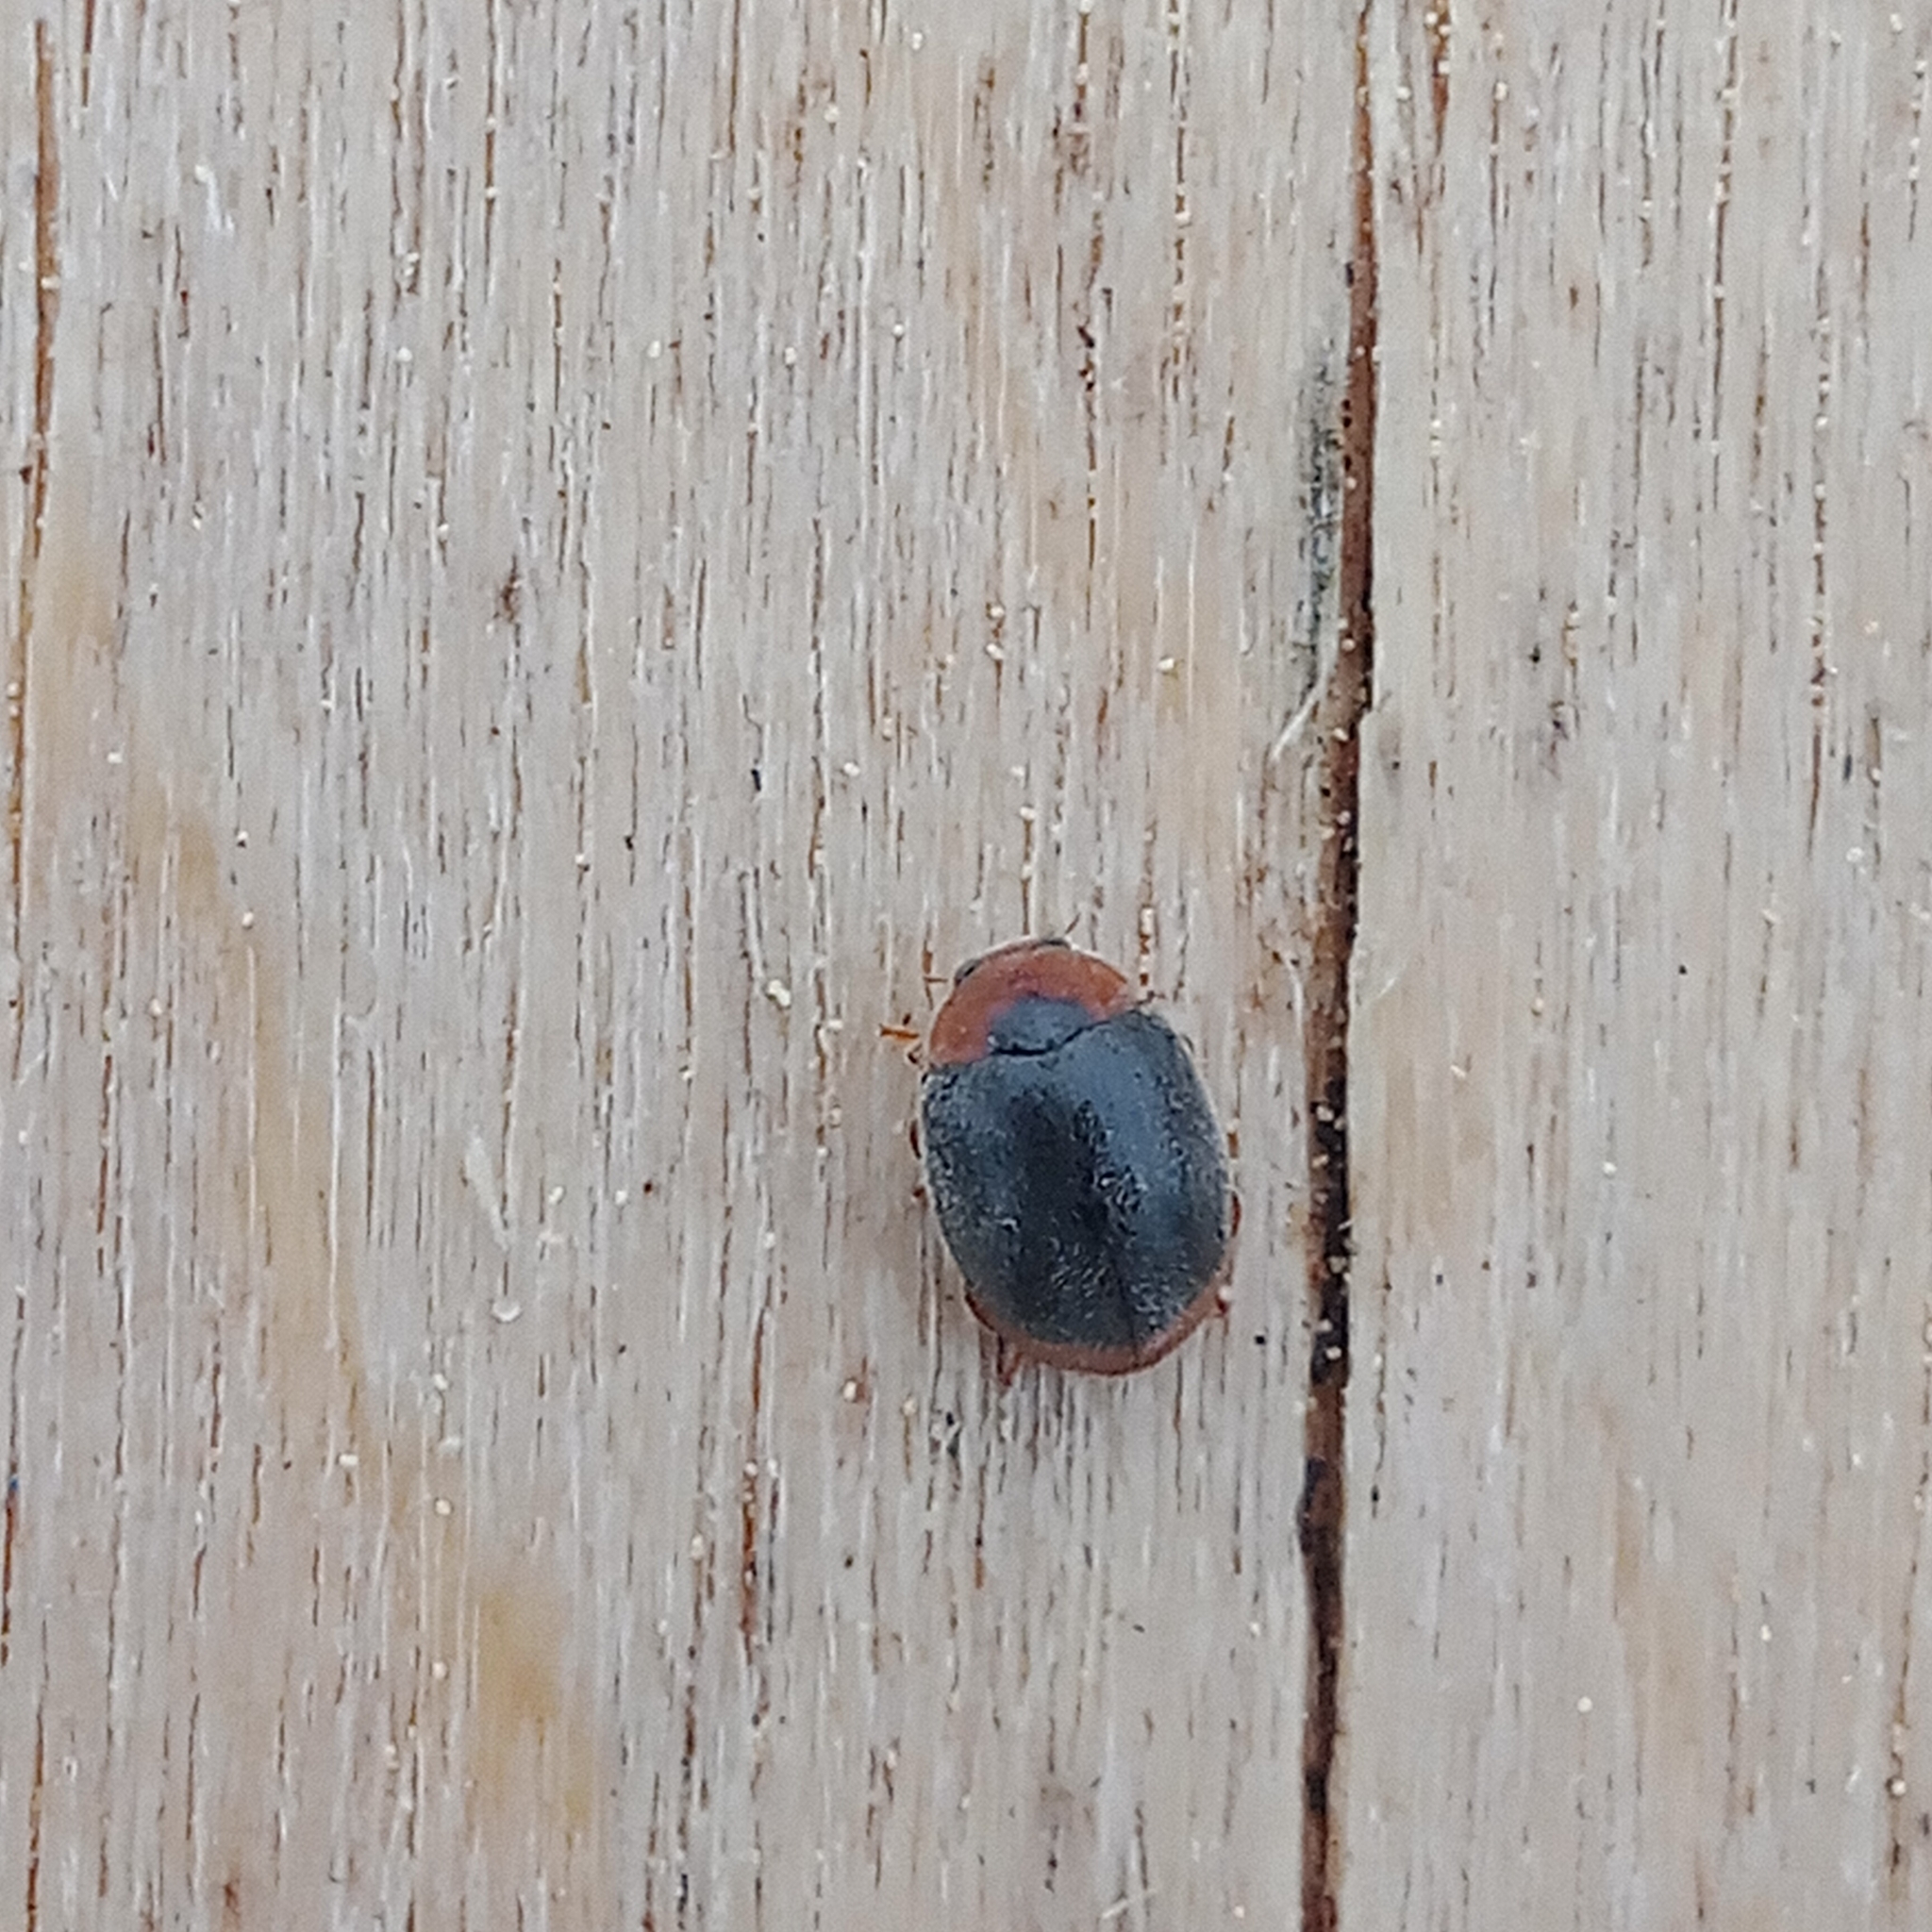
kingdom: Animalia
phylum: Arthropoda
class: Insecta
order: Coleoptera
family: Coccinellidae
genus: Scymnus
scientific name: Scymnus ferrugatus
